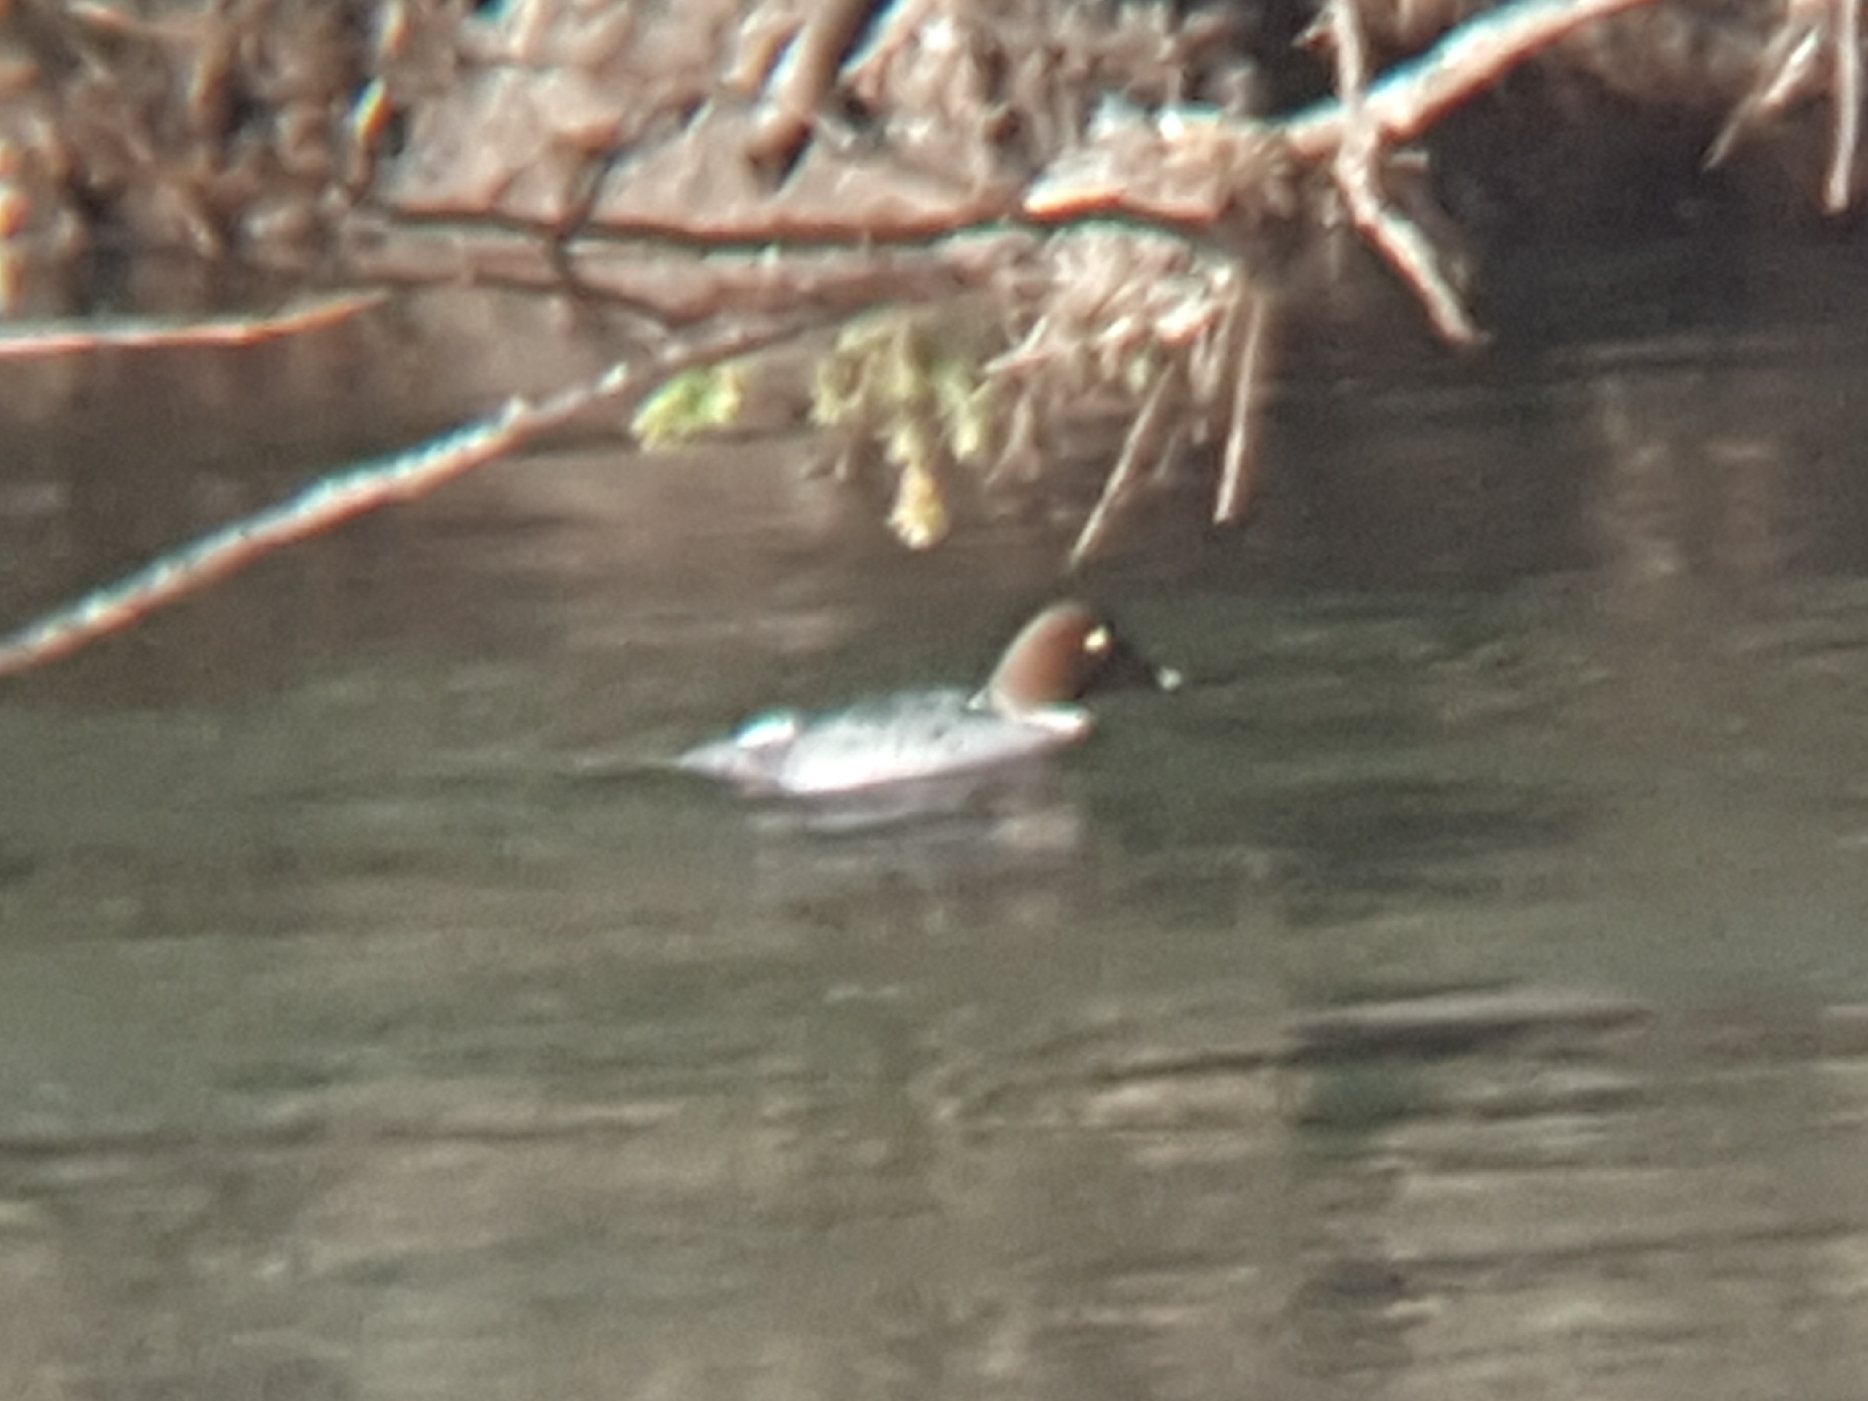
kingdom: Animalia
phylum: Chordata
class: Aves
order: Anseriformes
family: Anatidae
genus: Bucephala
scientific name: Bucephala clangula
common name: Common goldeneye
